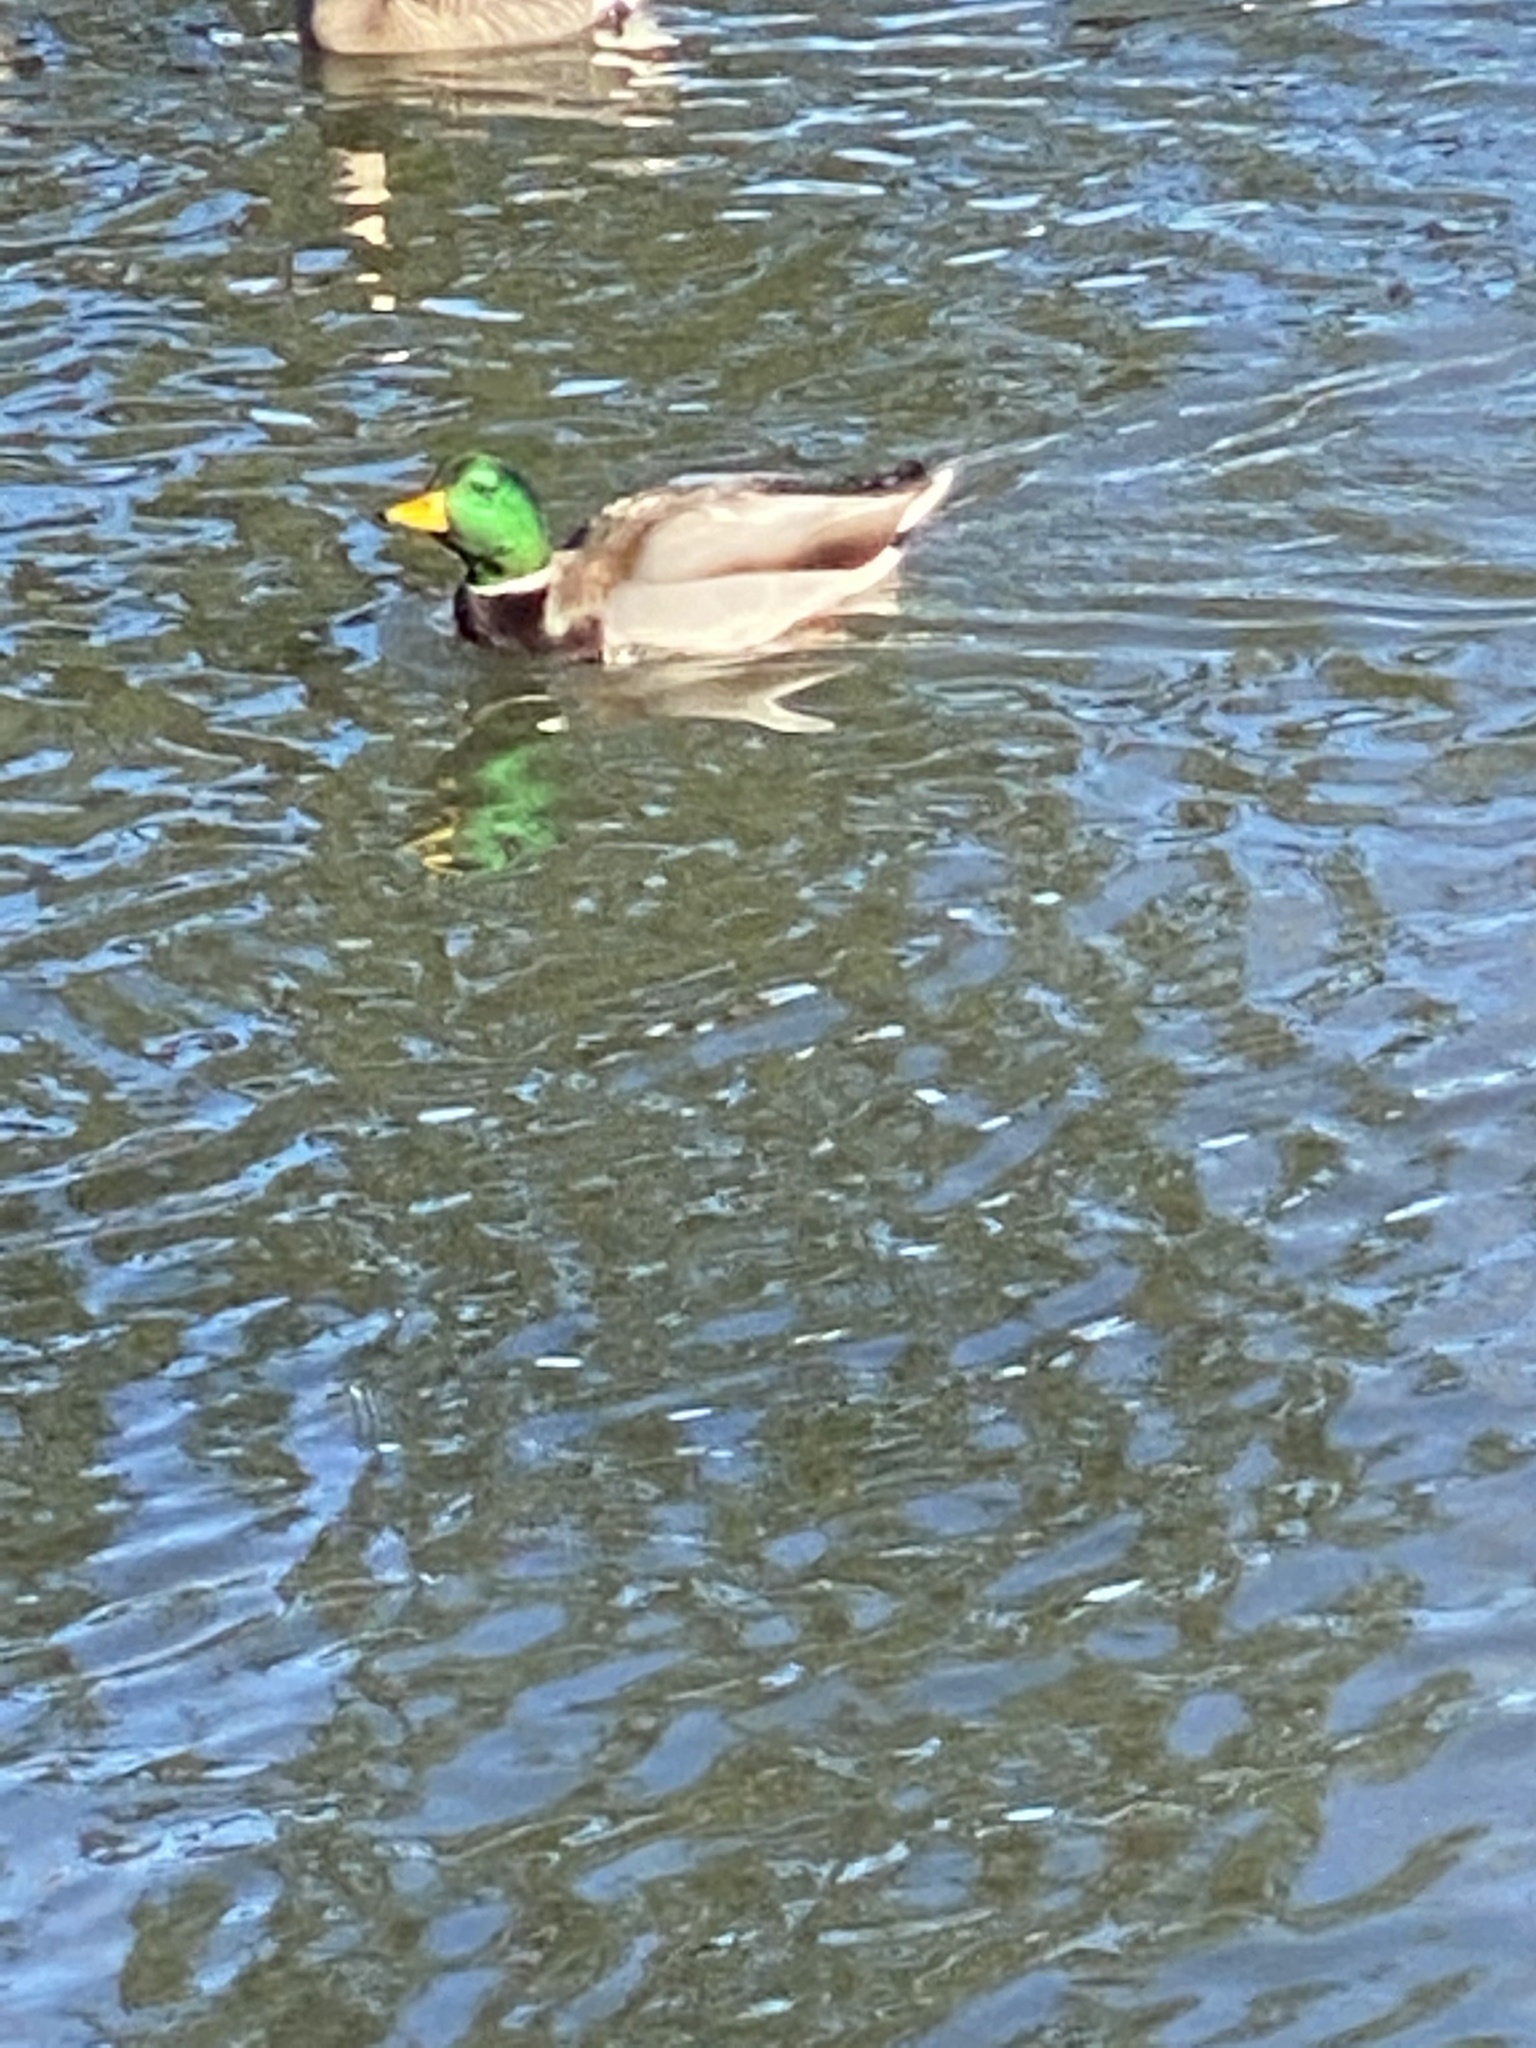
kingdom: Animalia
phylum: Chordata
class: Aves
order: Anseriformes
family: Anatidae
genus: Anas
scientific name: Anas platyrhynchos
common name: Mallard
